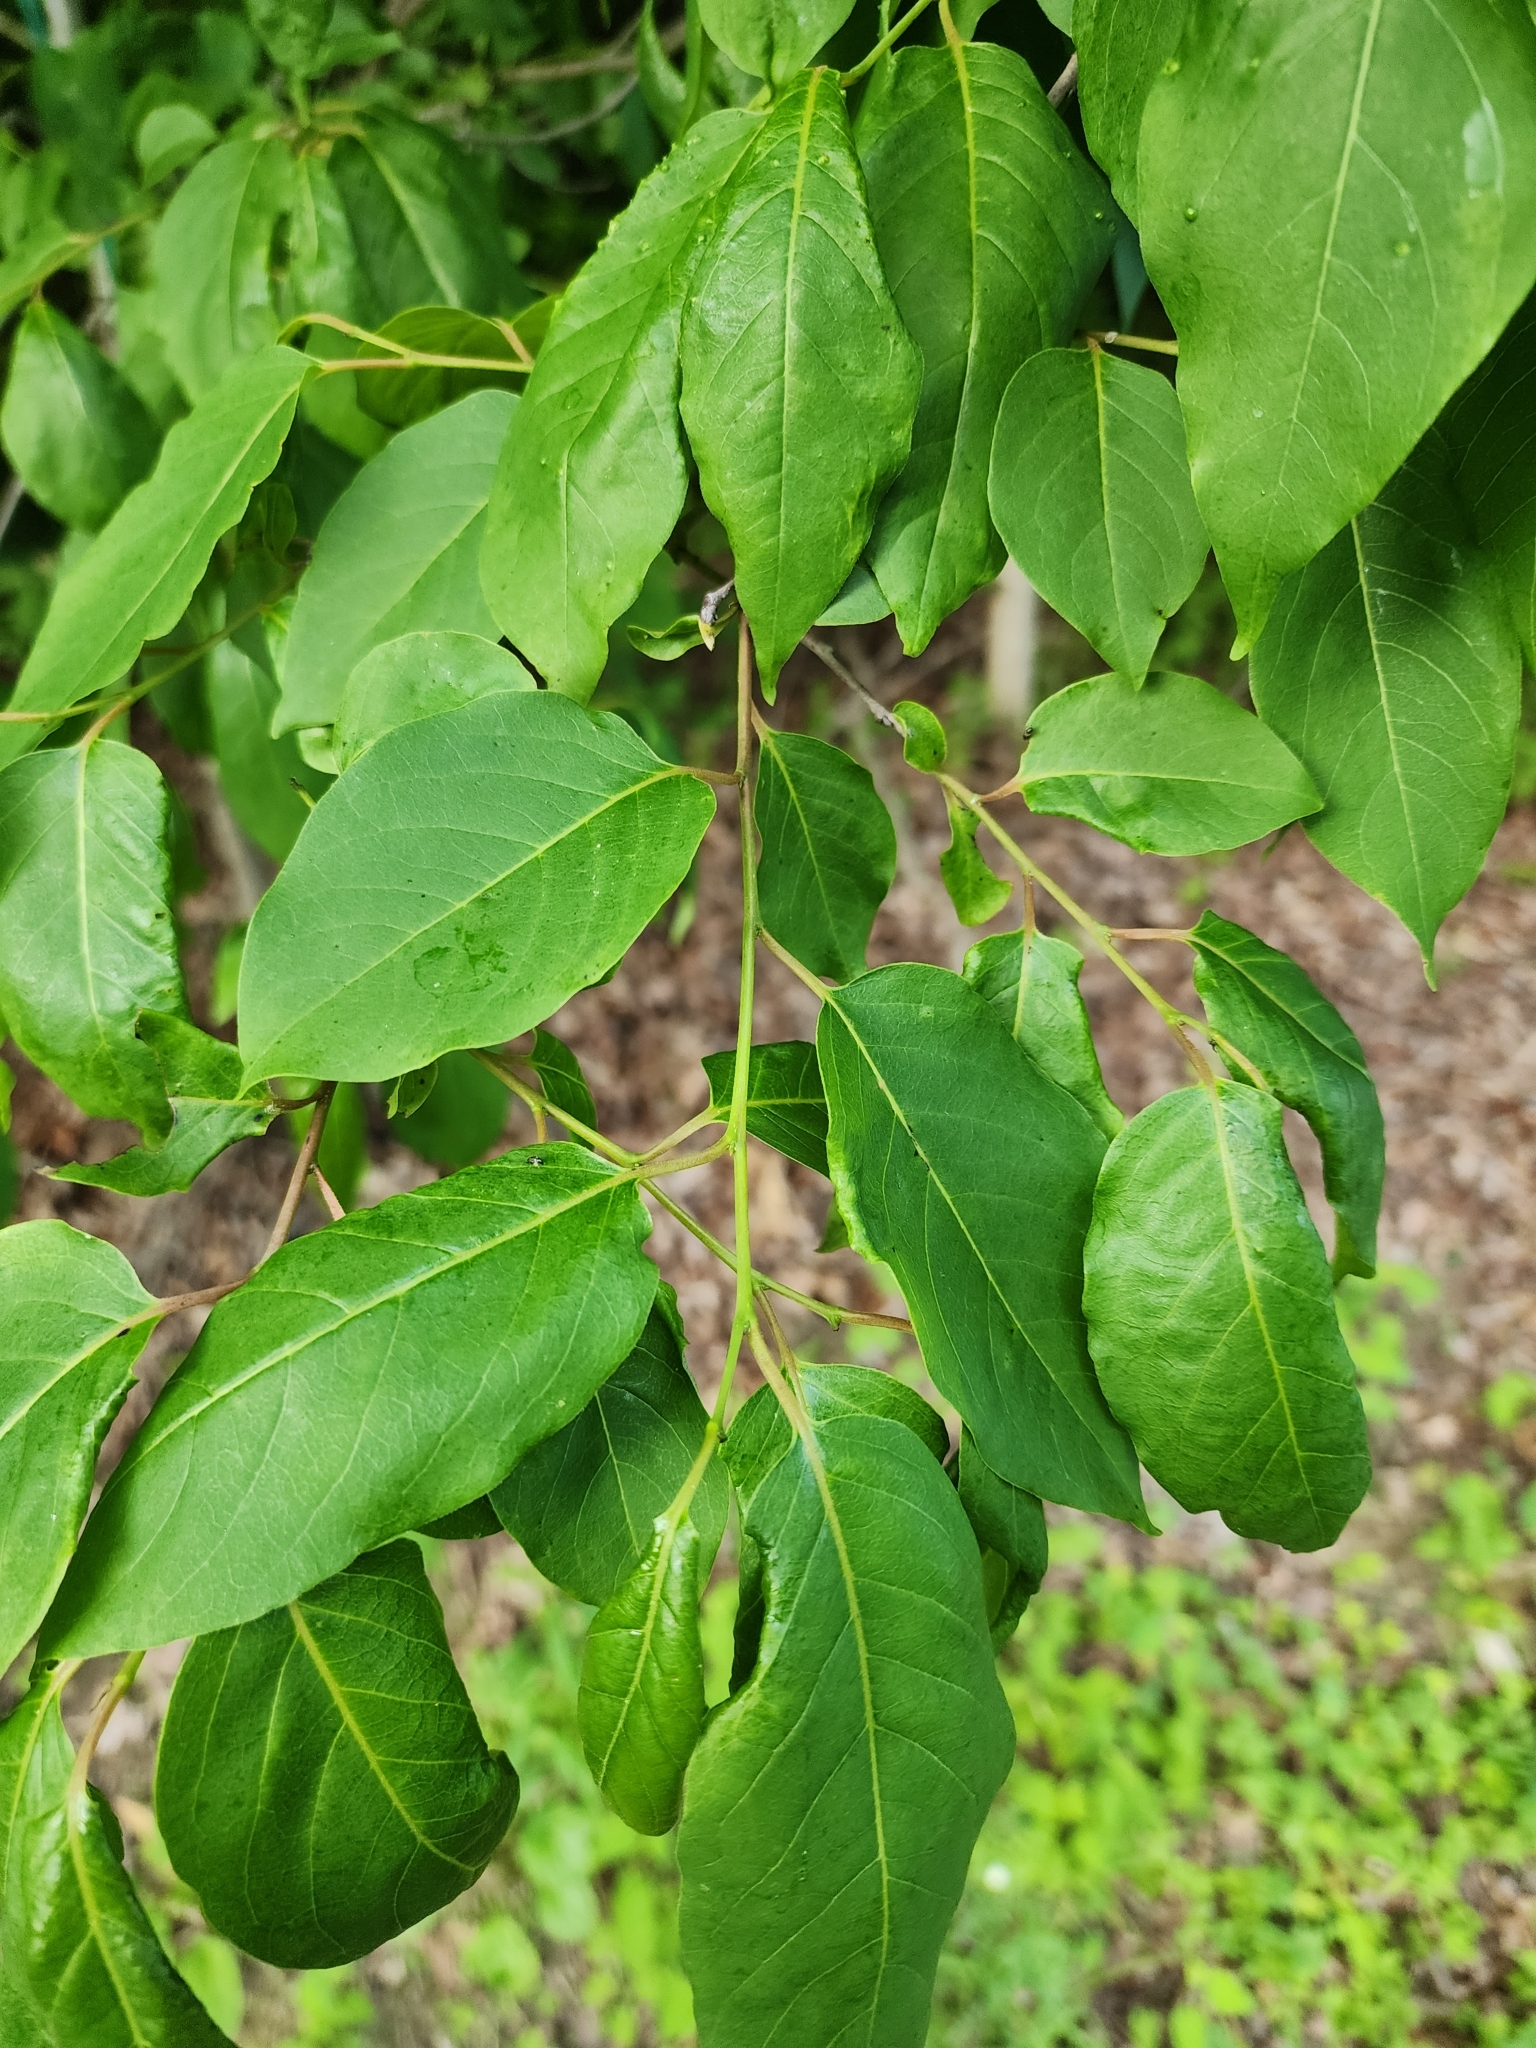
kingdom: Plantae
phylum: Tracheophyta
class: Magnoliopsida
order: Ericales
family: Ebenaceae
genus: Diospyros
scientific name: Diospyros virginiana
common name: Persimmon
